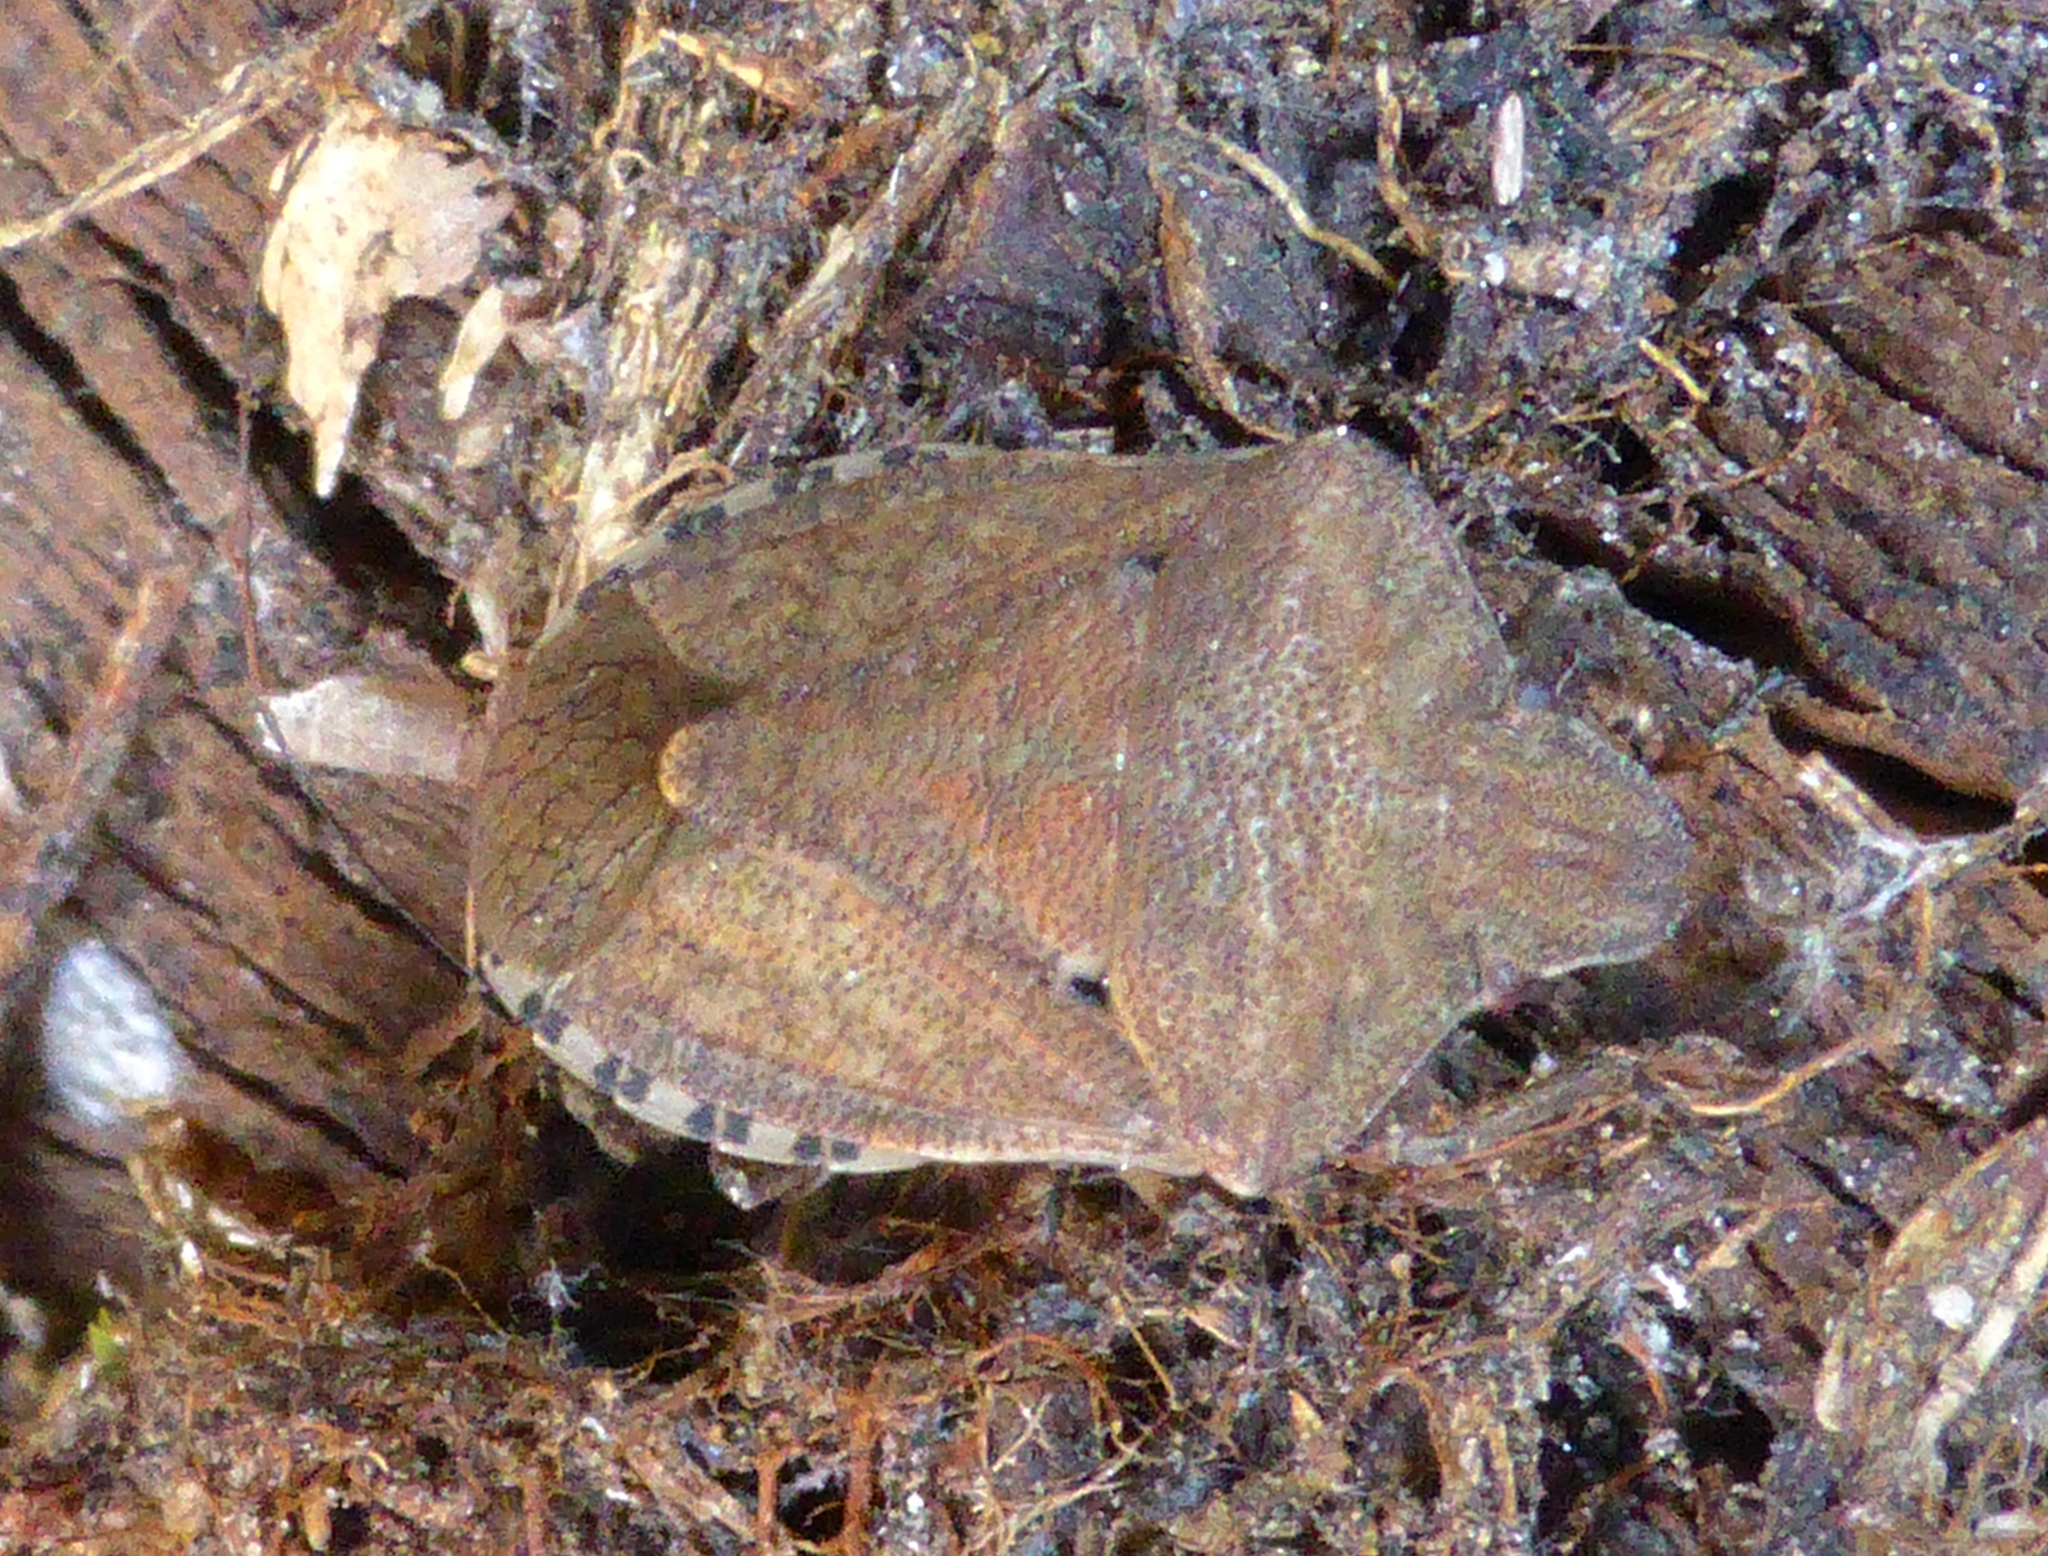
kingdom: Animalia
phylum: Arthropoda
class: Insecta
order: Hemiptera
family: Pentatomidae
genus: Dictyotus
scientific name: Dictyotus caenosus
